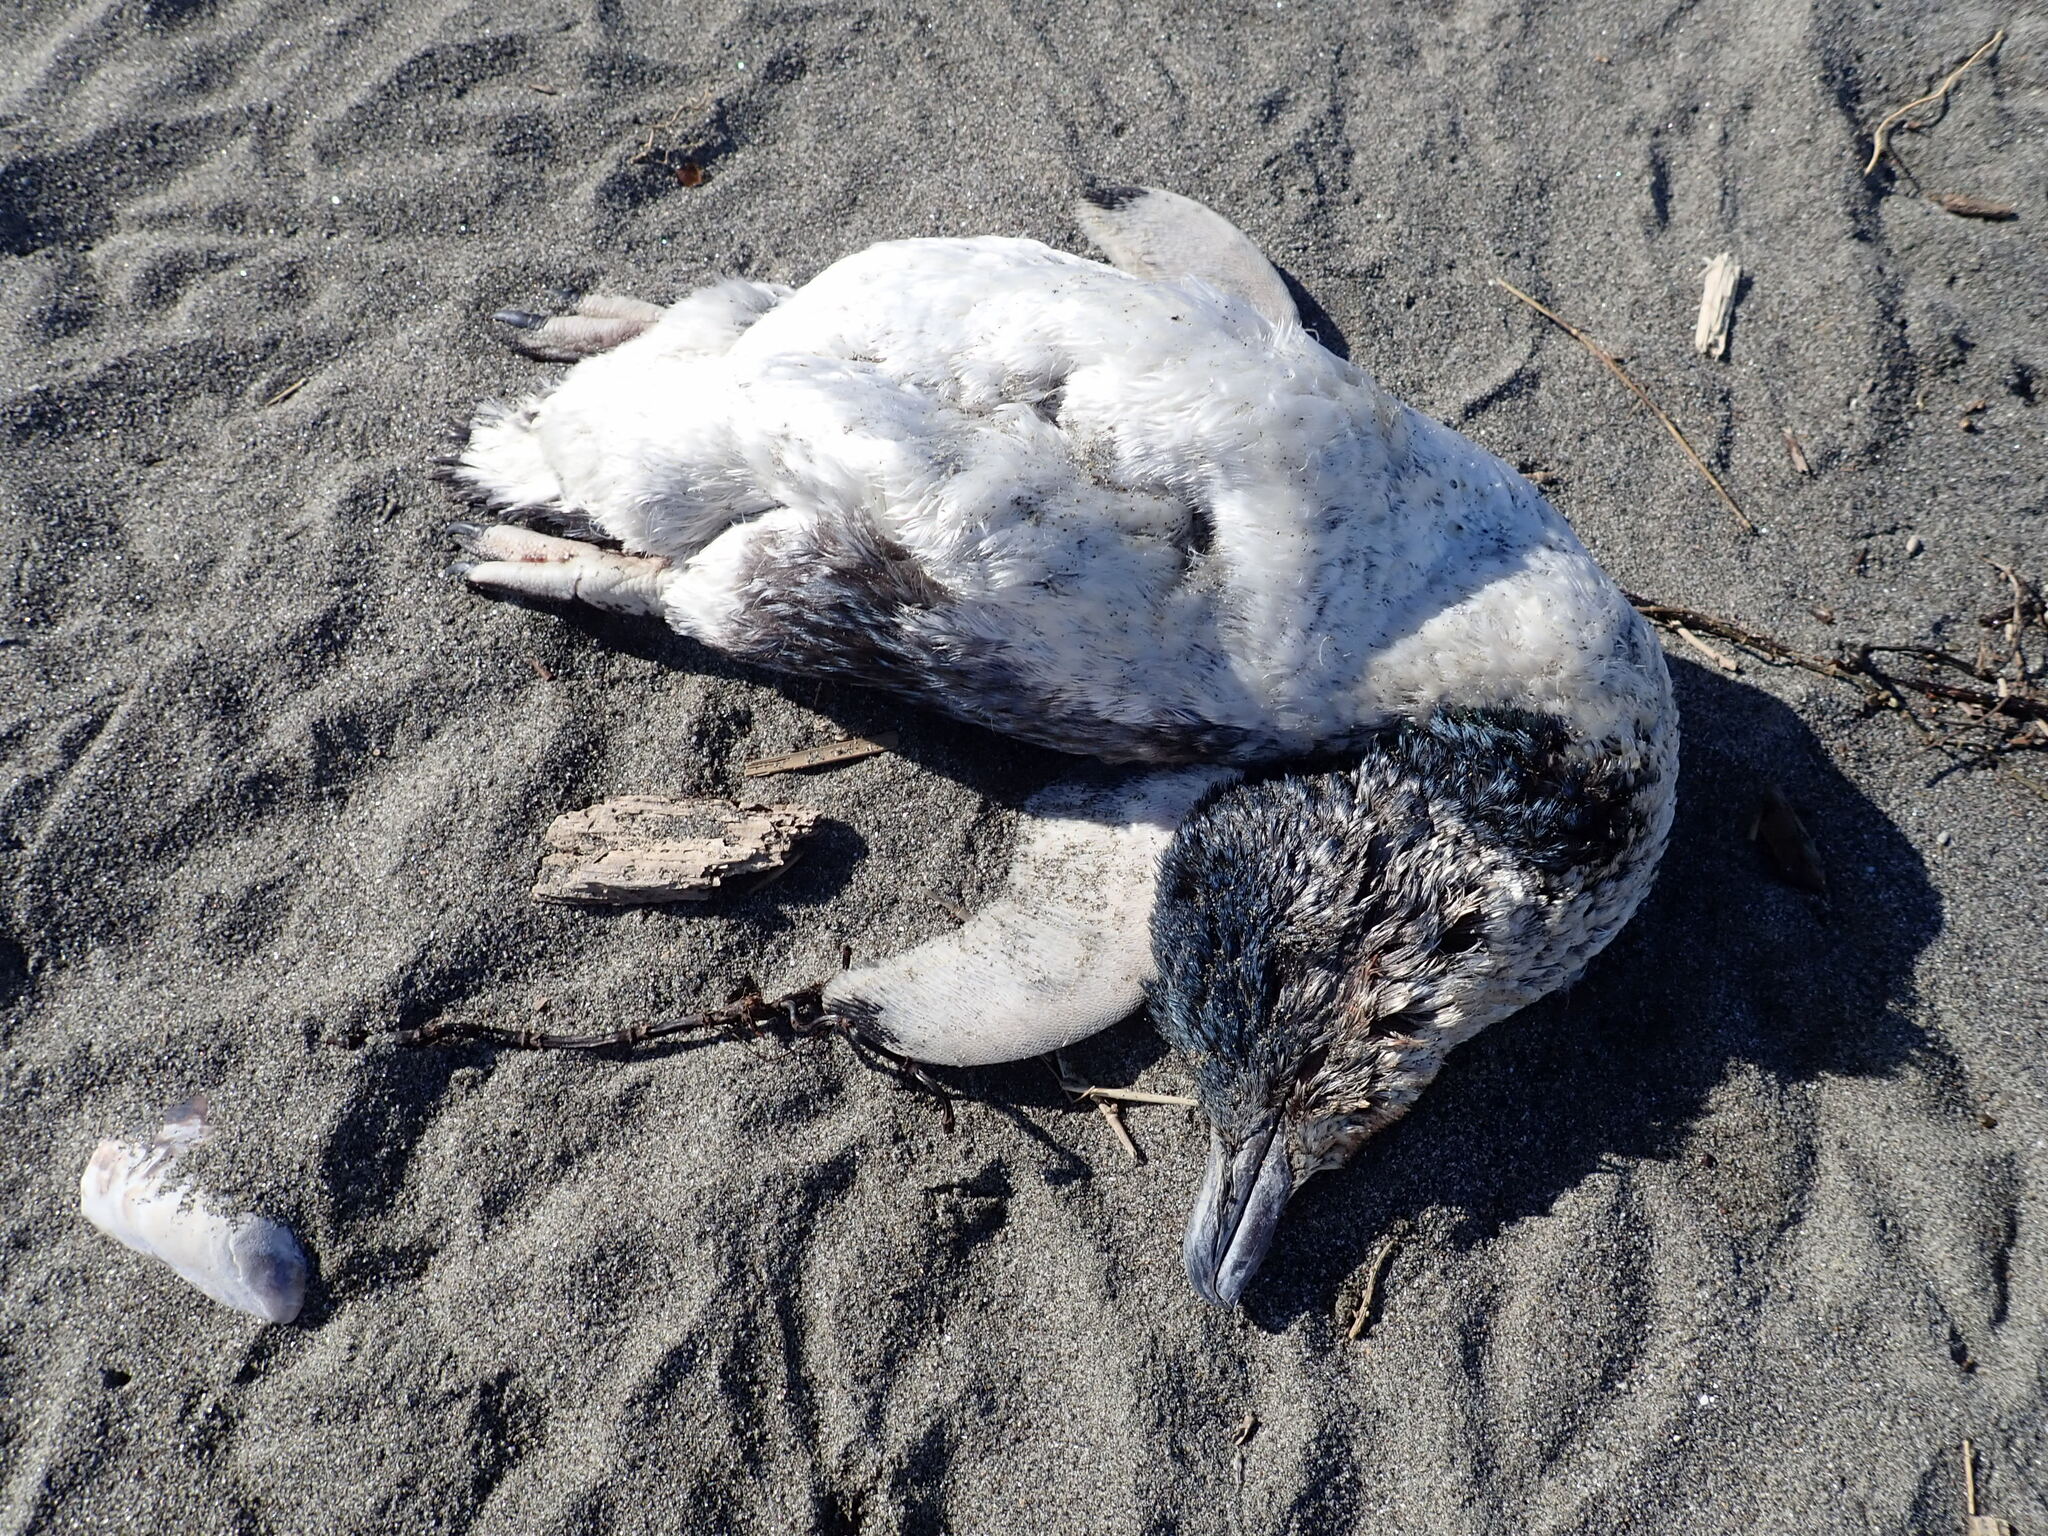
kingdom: Animalia
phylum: Chordata
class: Aves
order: Sphenisciformes
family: Spheniscidae
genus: Eudyptula
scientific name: Eudyptula minor
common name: Little penguin
